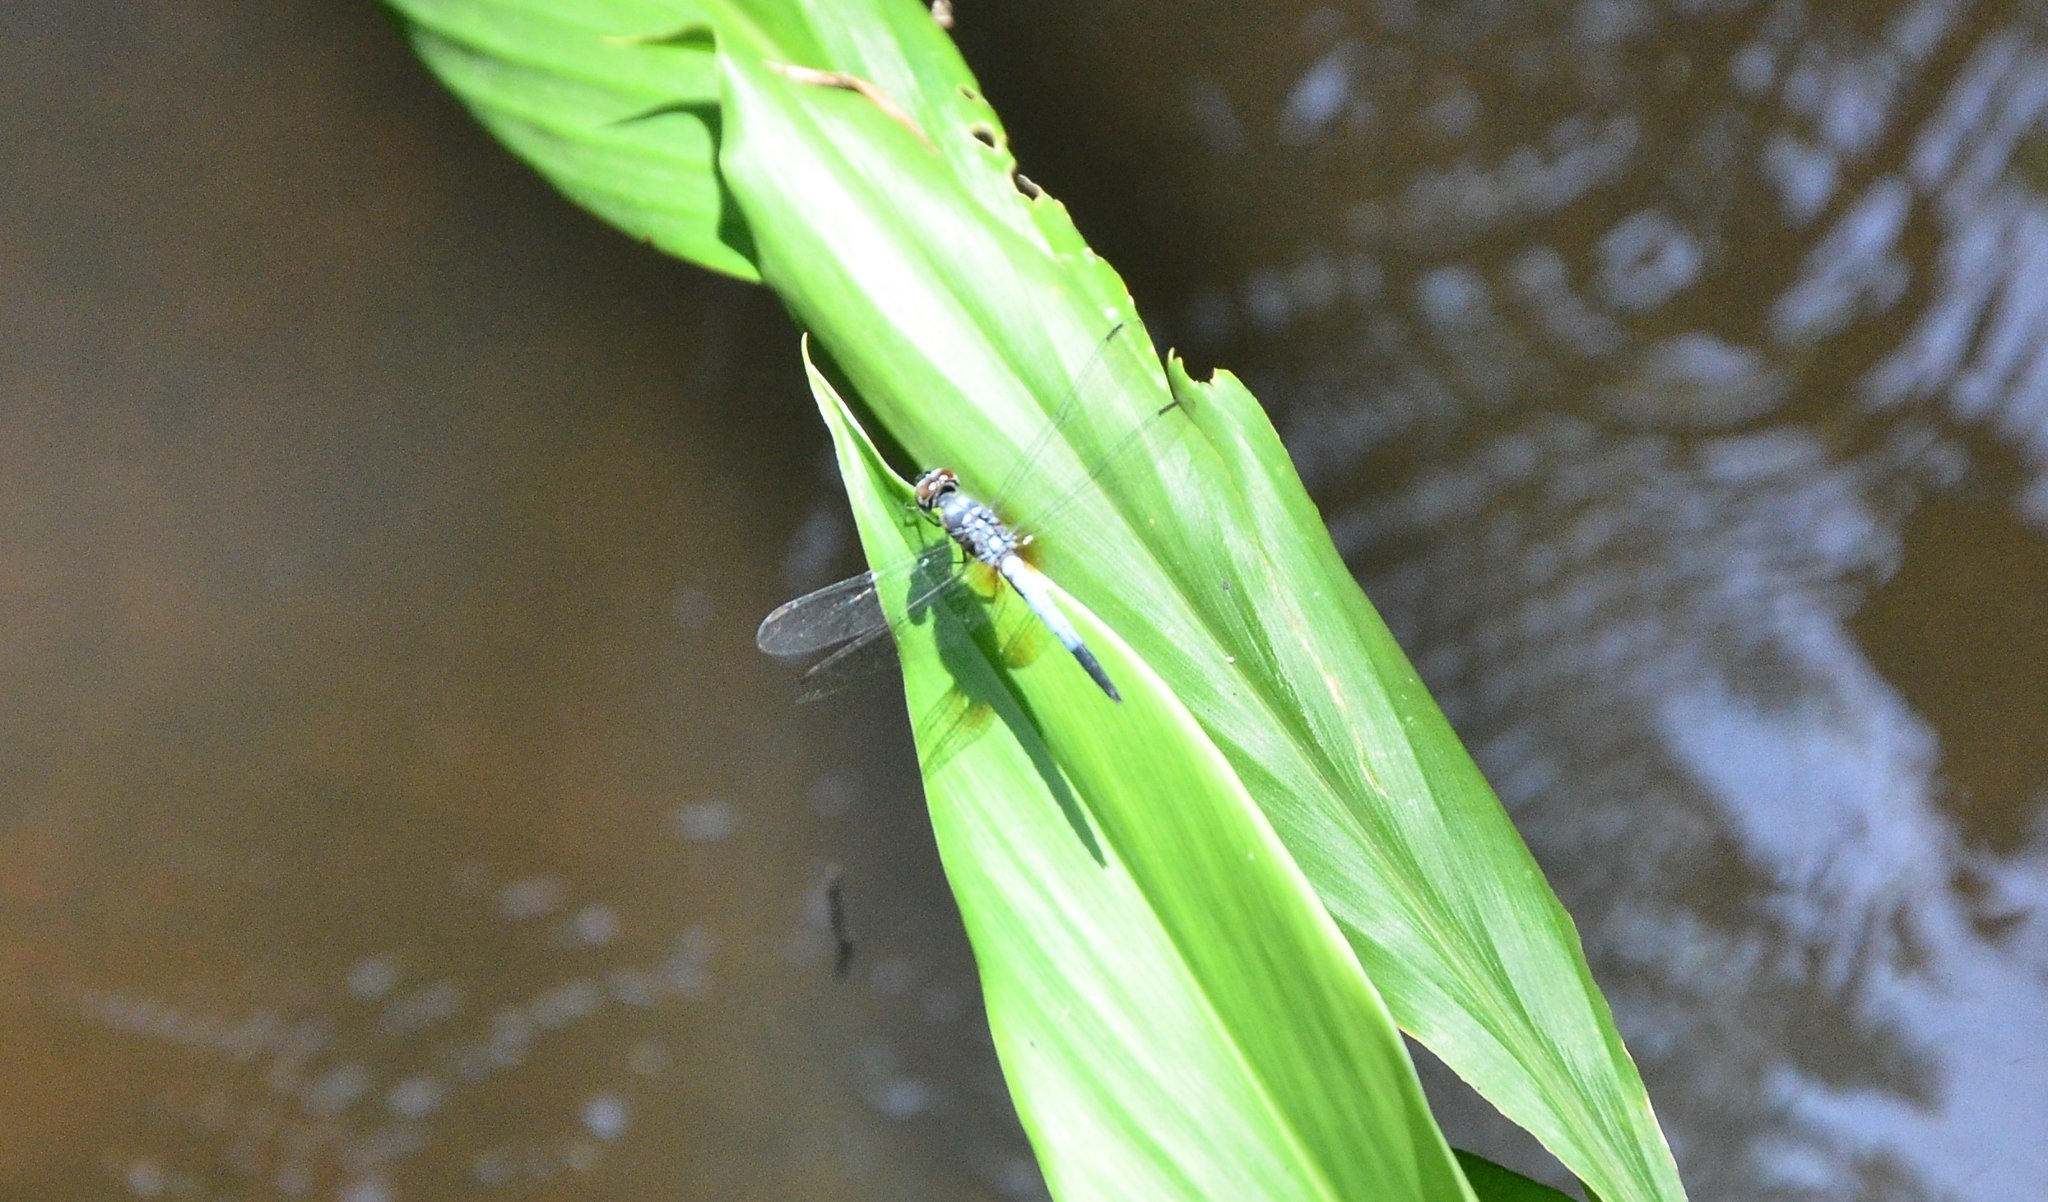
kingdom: Animalia
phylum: Arthropoda
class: Insecta
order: Odonata
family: Libellulidae
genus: Brachydiplax
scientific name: Brachydiplax chalybea
